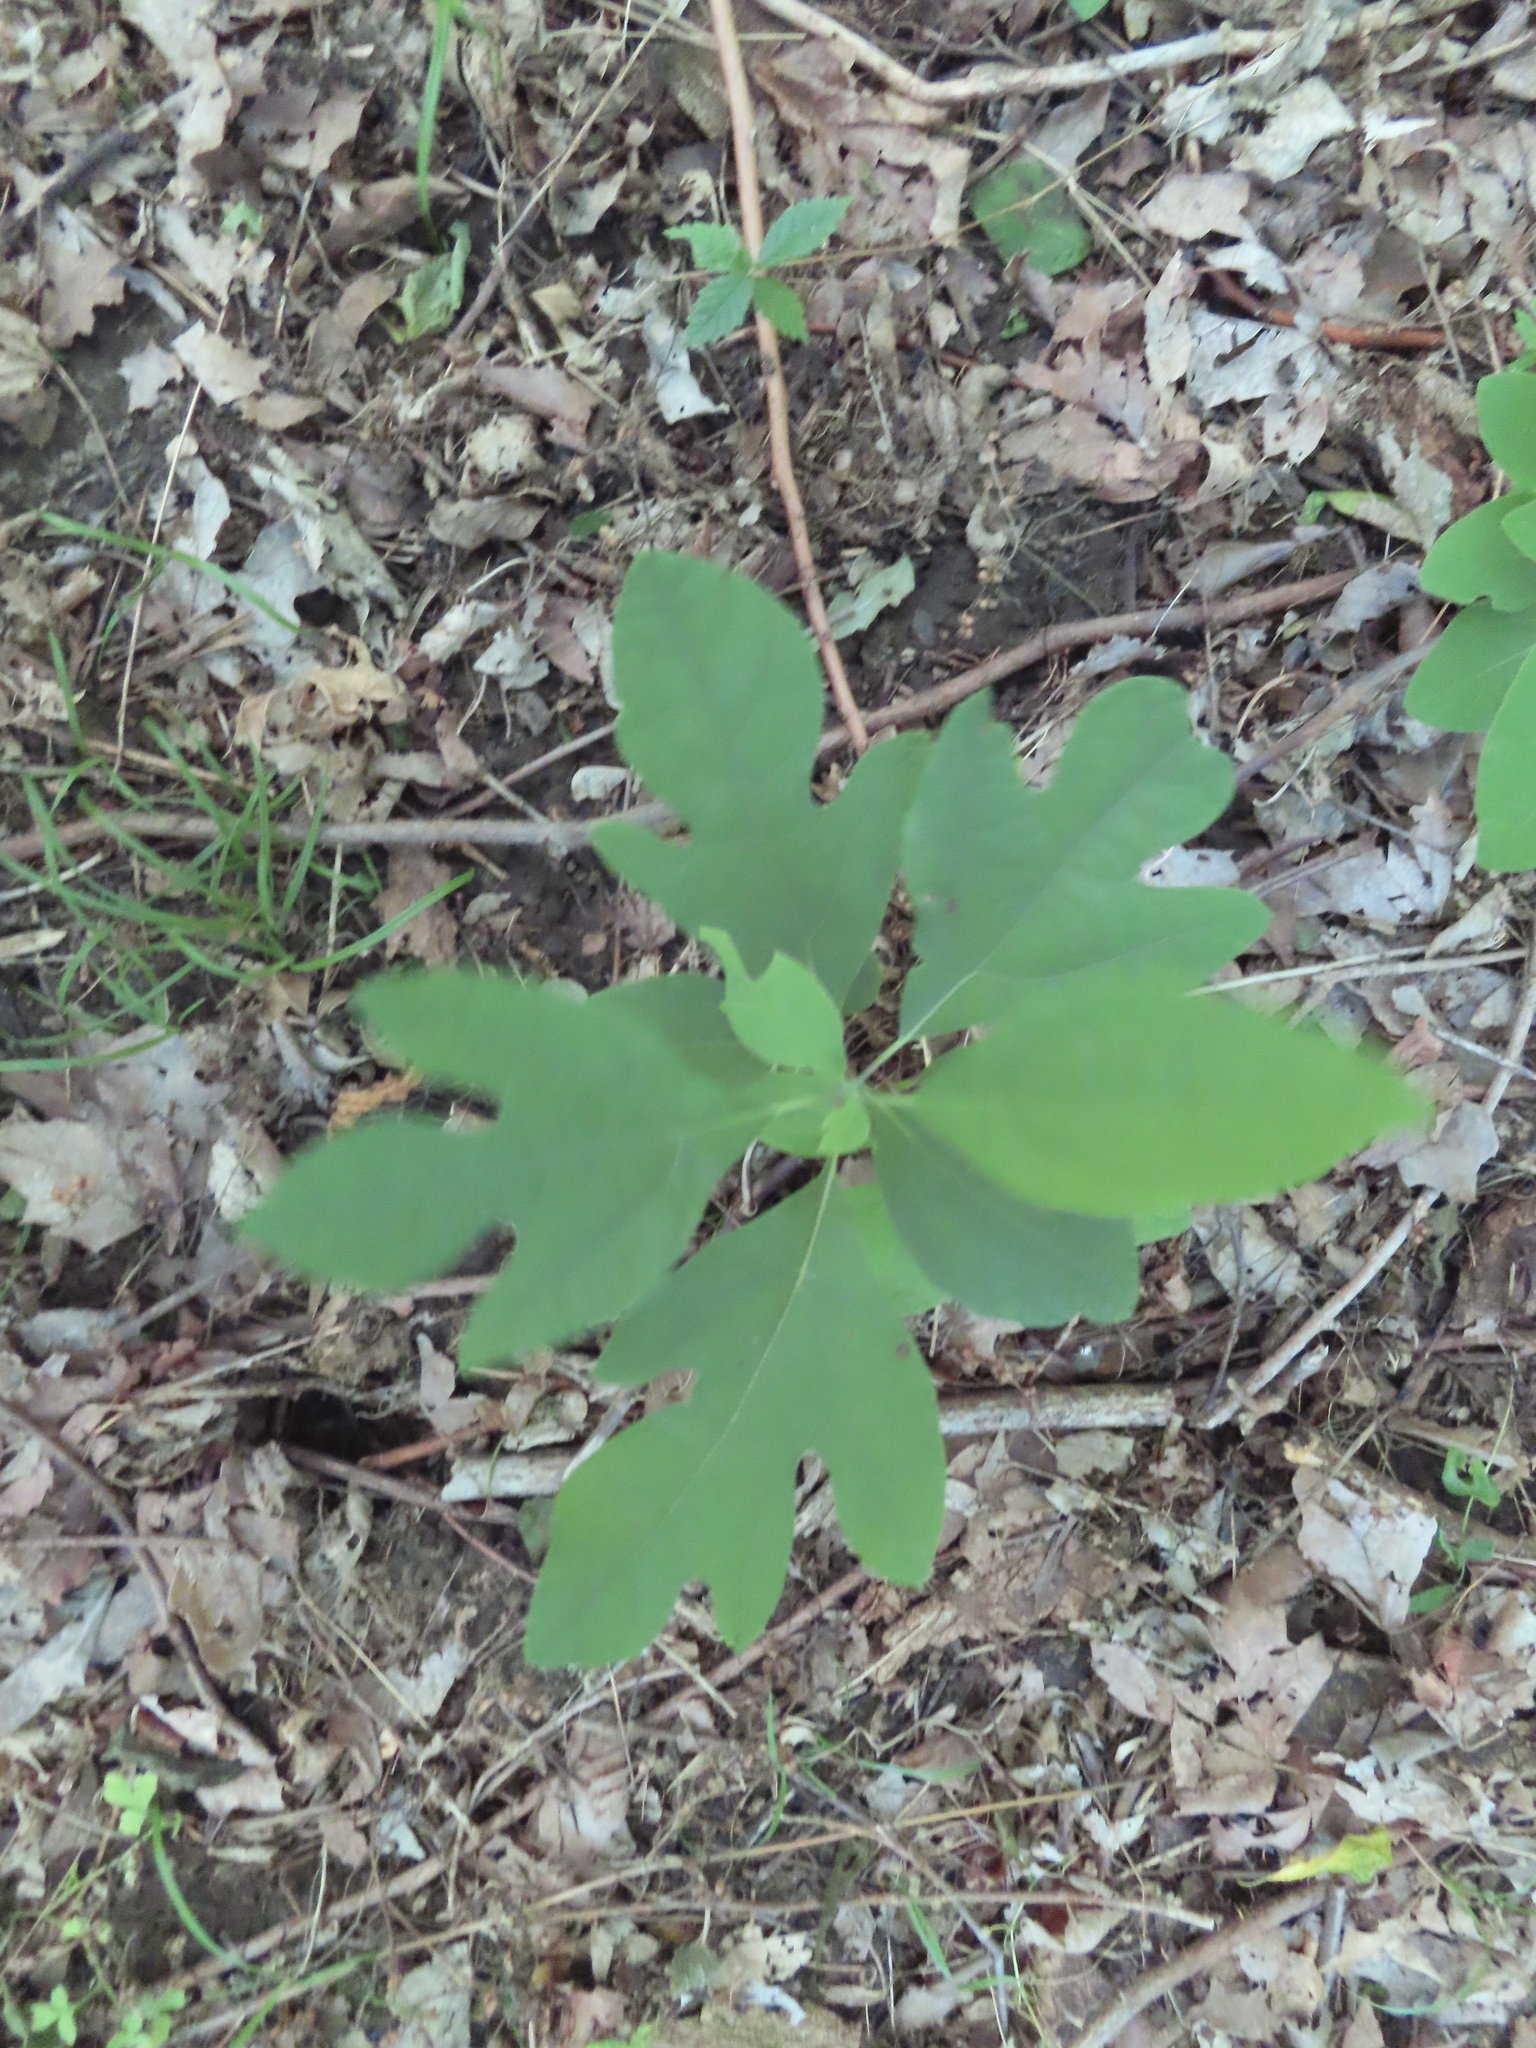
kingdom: Plantae
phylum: Tracheophyta
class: Magnoliopsida
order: Laurales
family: Lauraceae
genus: Sassafras
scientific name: Sassafras albidum
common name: Sassafras
